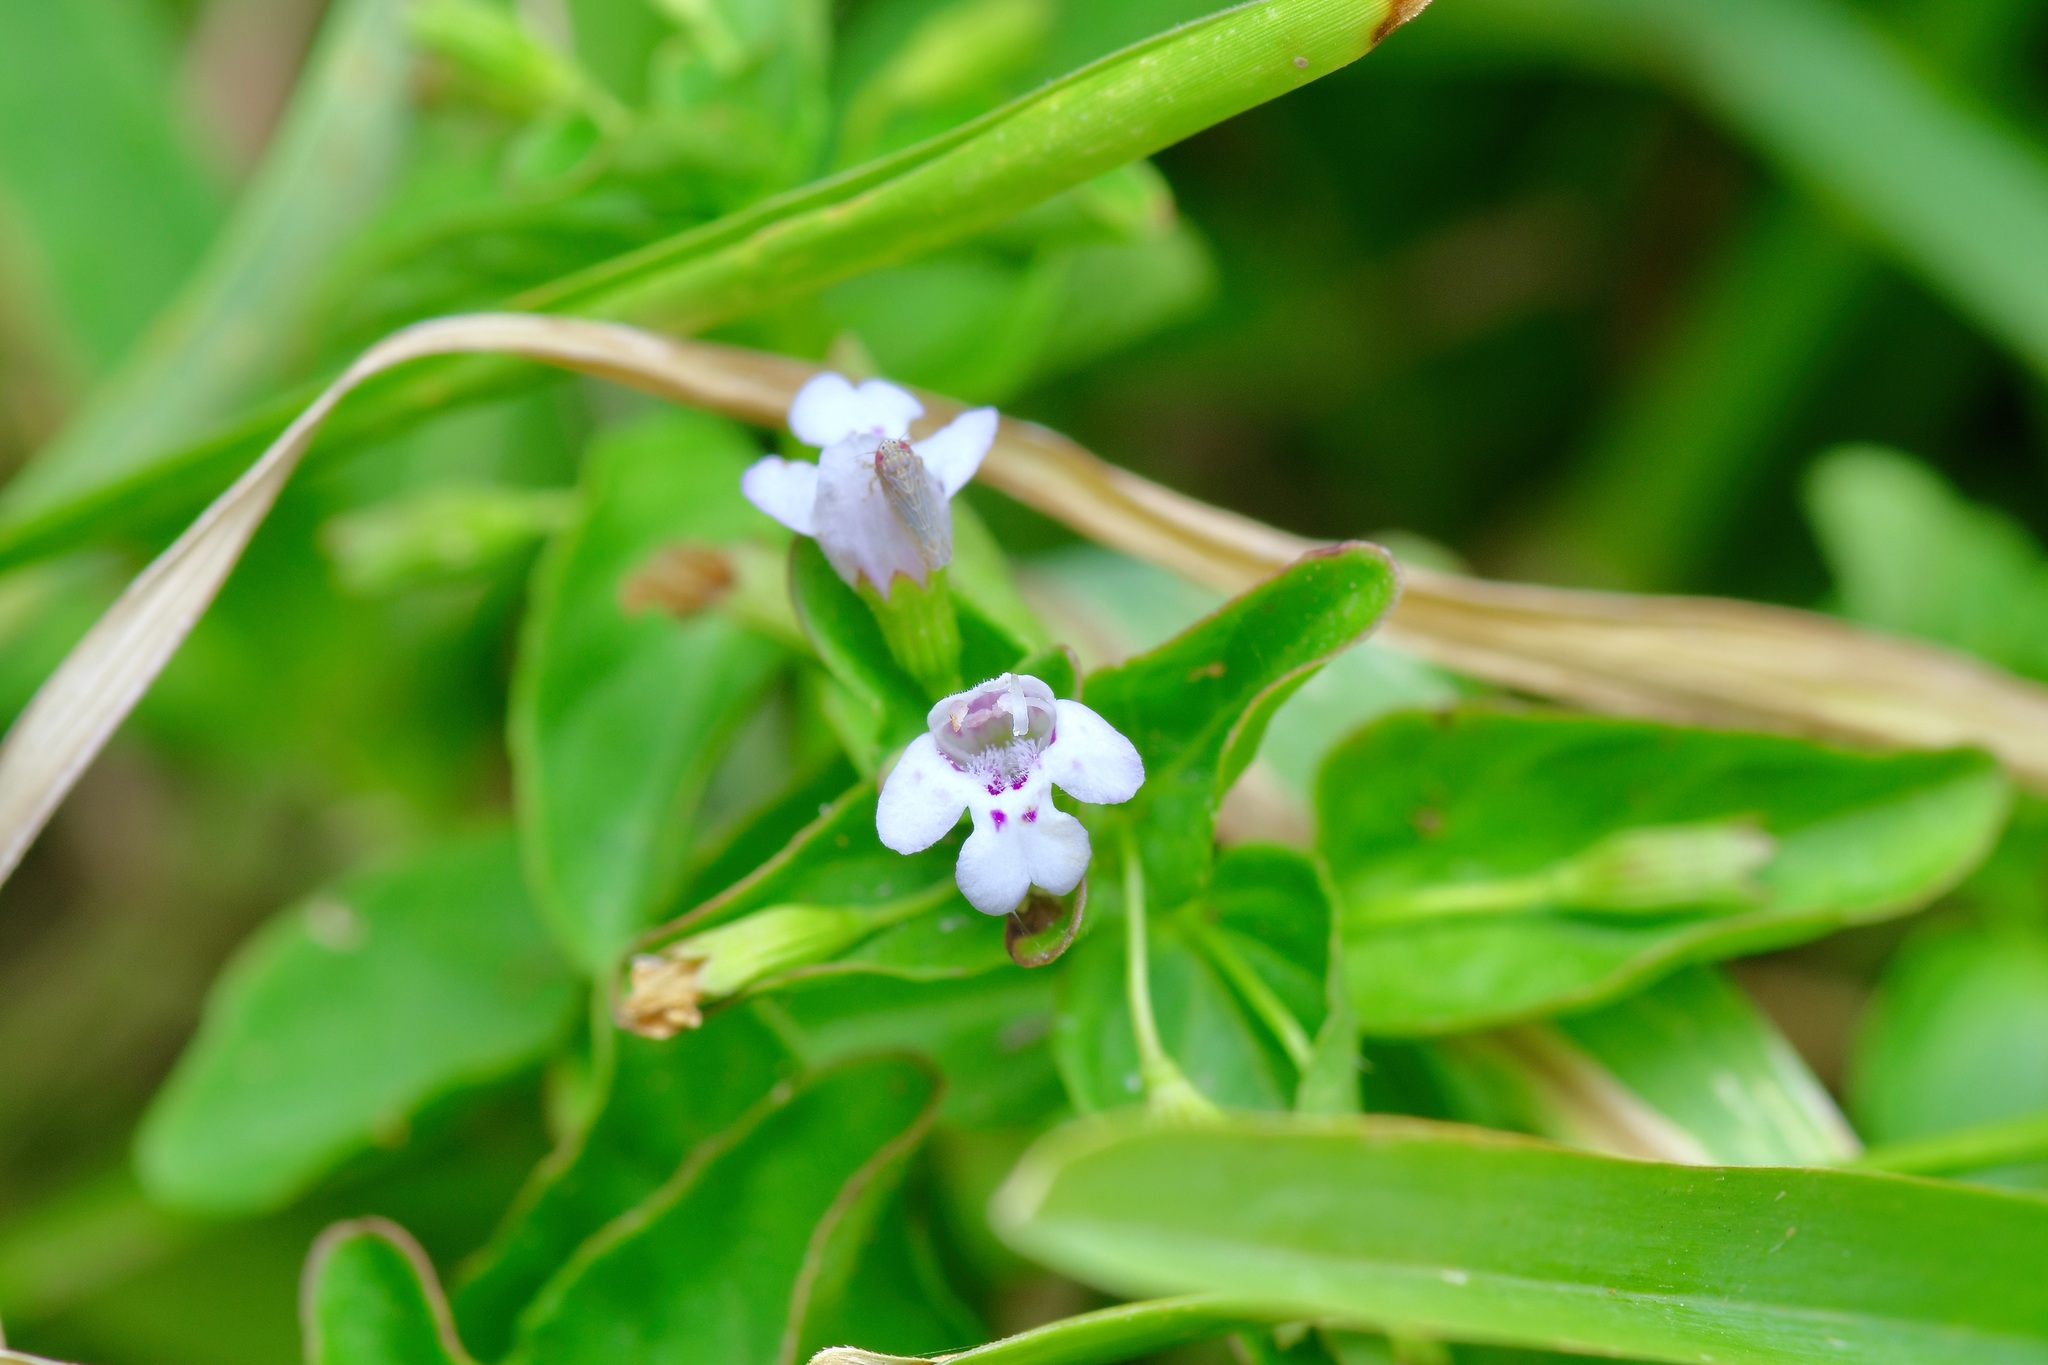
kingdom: Plantae
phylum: Tracheophyta
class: Magnoliopsida
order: Lamiales
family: Lamiaceae
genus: Clinopodium
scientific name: Clinopodium brownei
